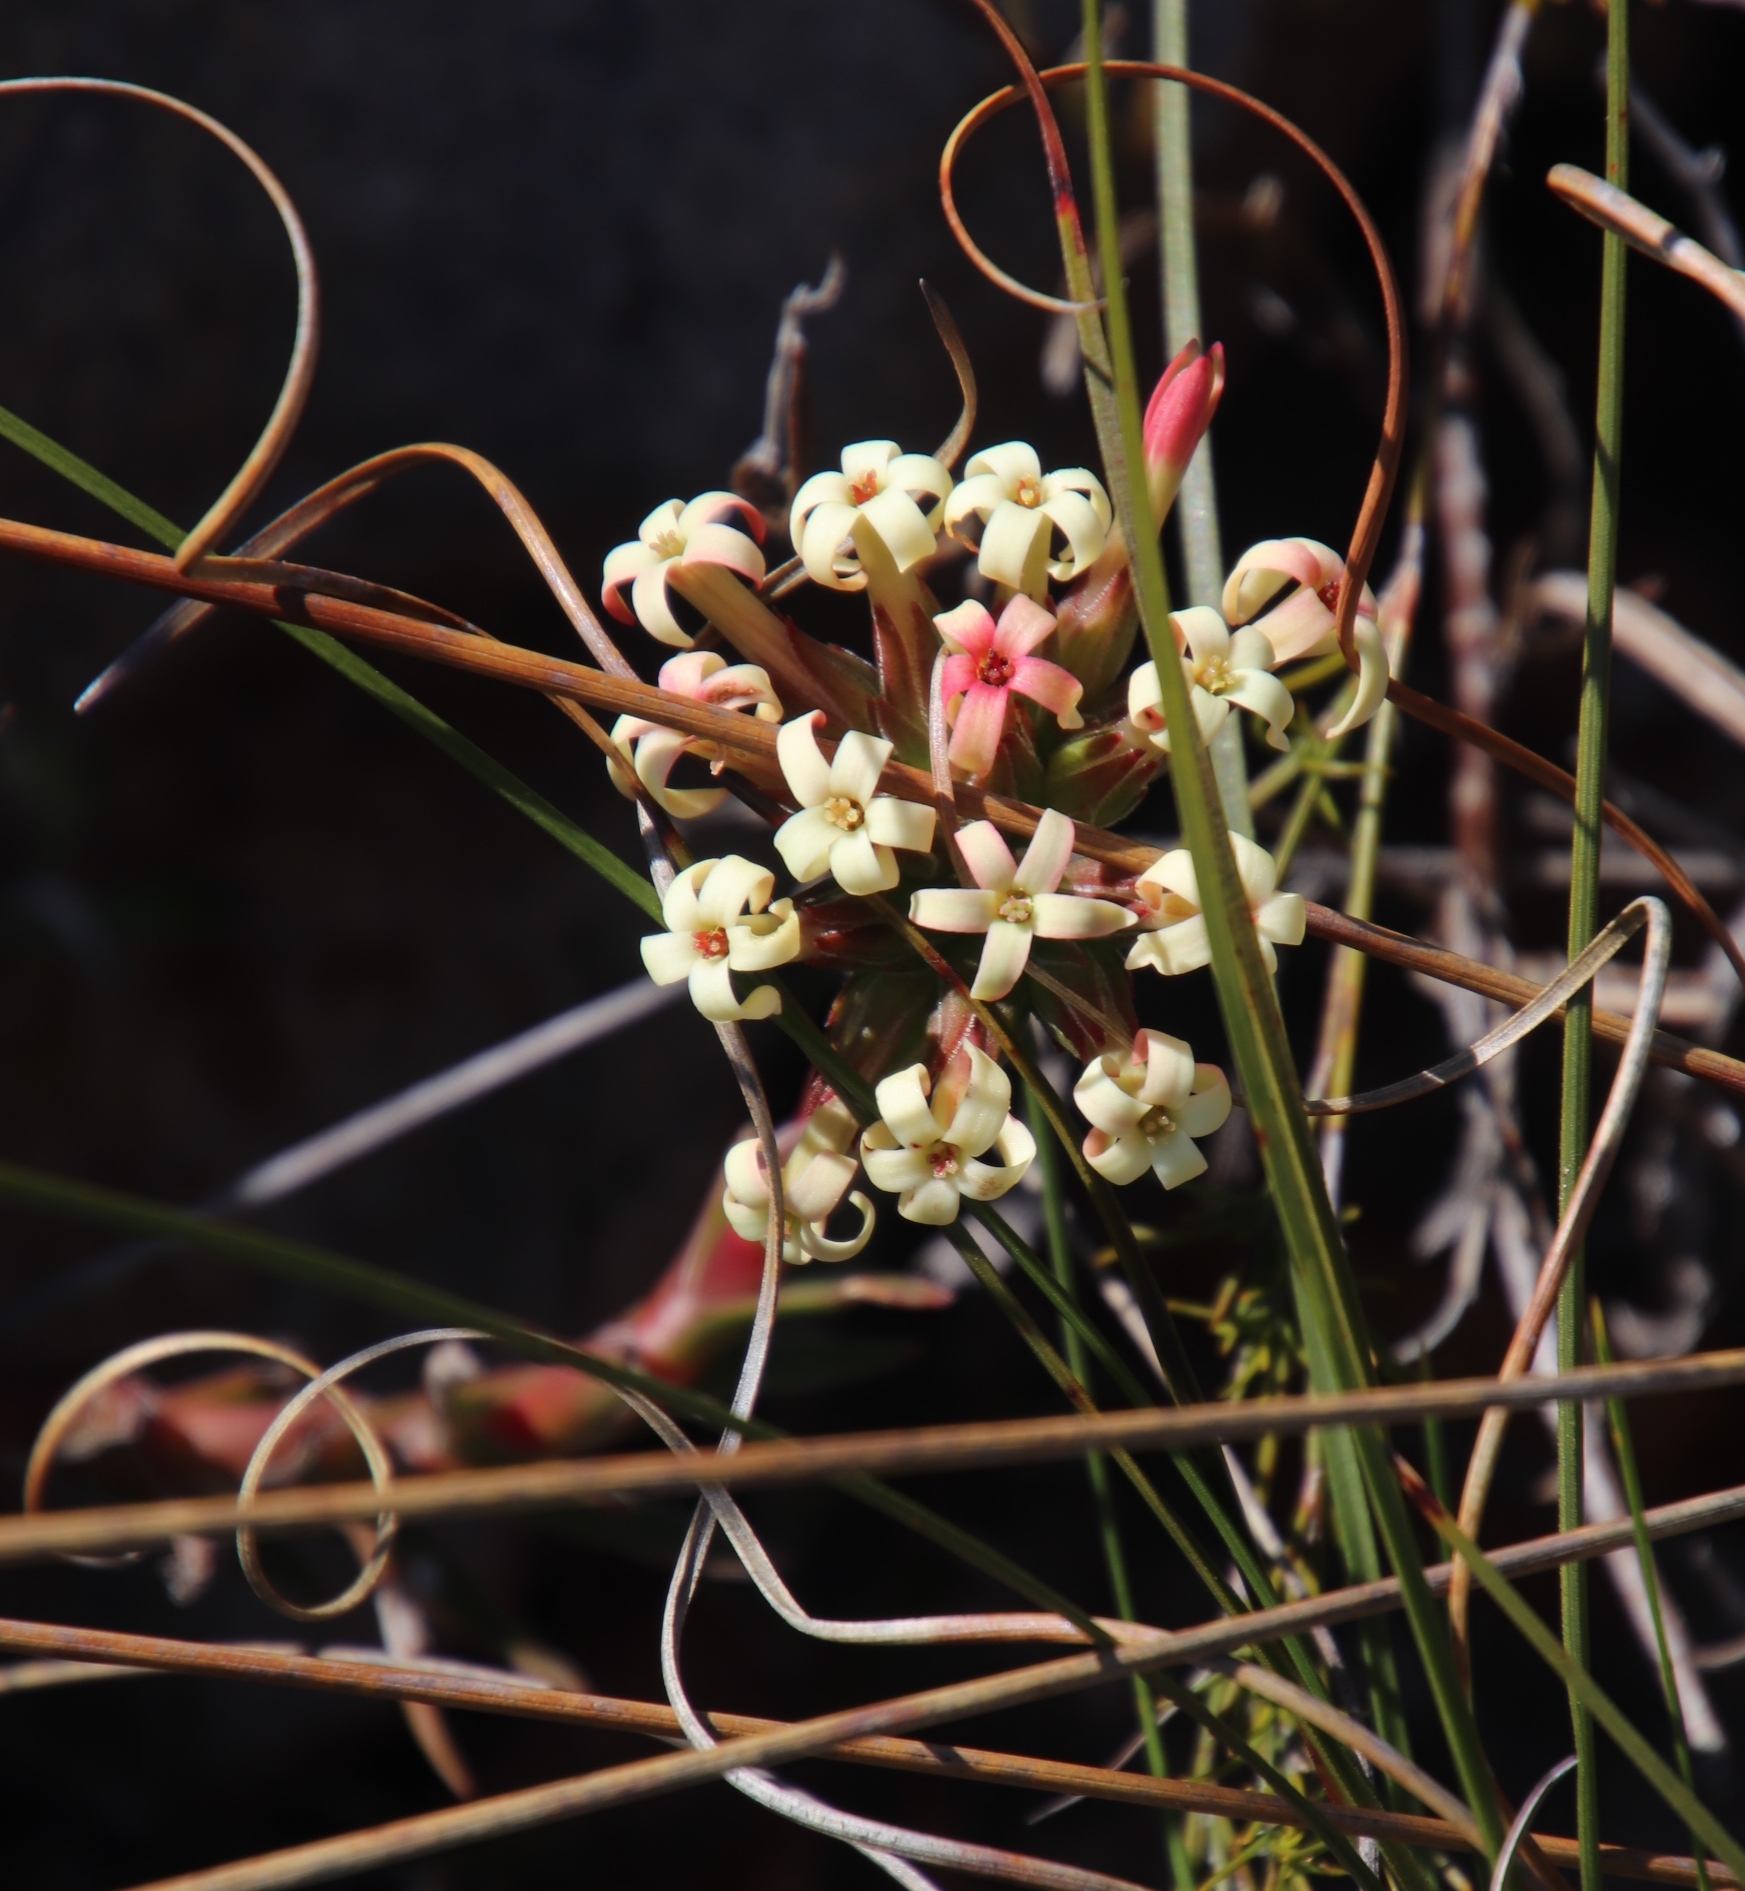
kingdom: Plantae
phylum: Tracheophyta
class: Magnoliopsida
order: Saxifragales
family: Crassulaceae
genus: Crassula
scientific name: Crassula fascicularis
